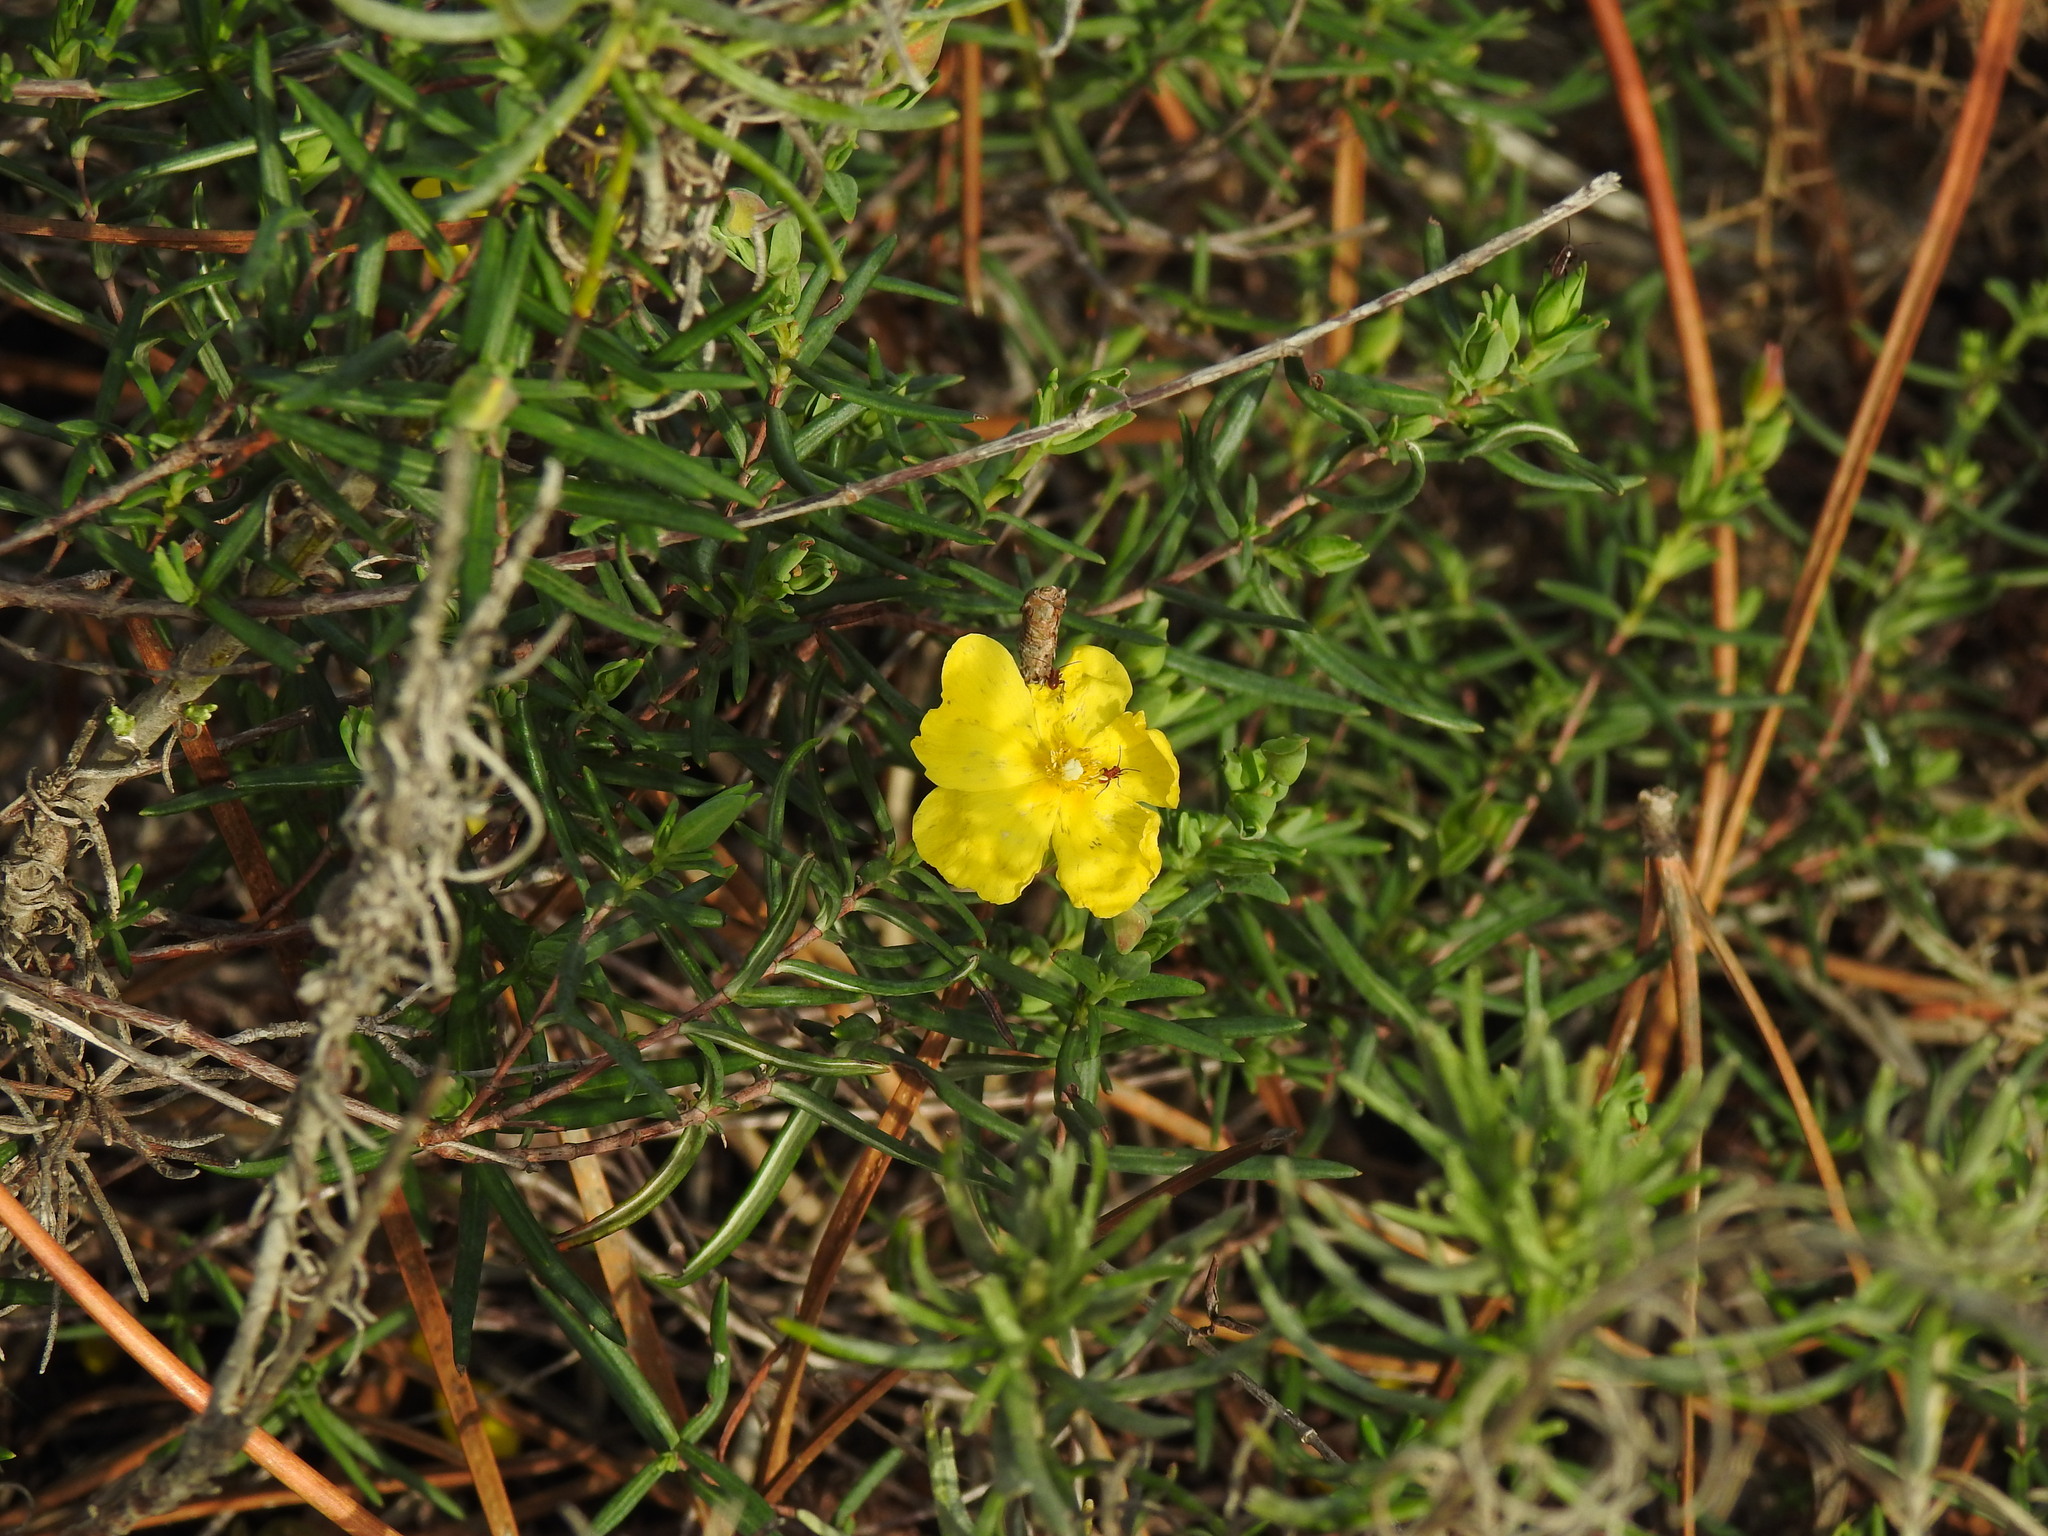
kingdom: Plantae
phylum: Tracheophyta
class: Magnoliopsida
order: Malvales
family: Cistaceae
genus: Halimium
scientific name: Halimium calycinum
